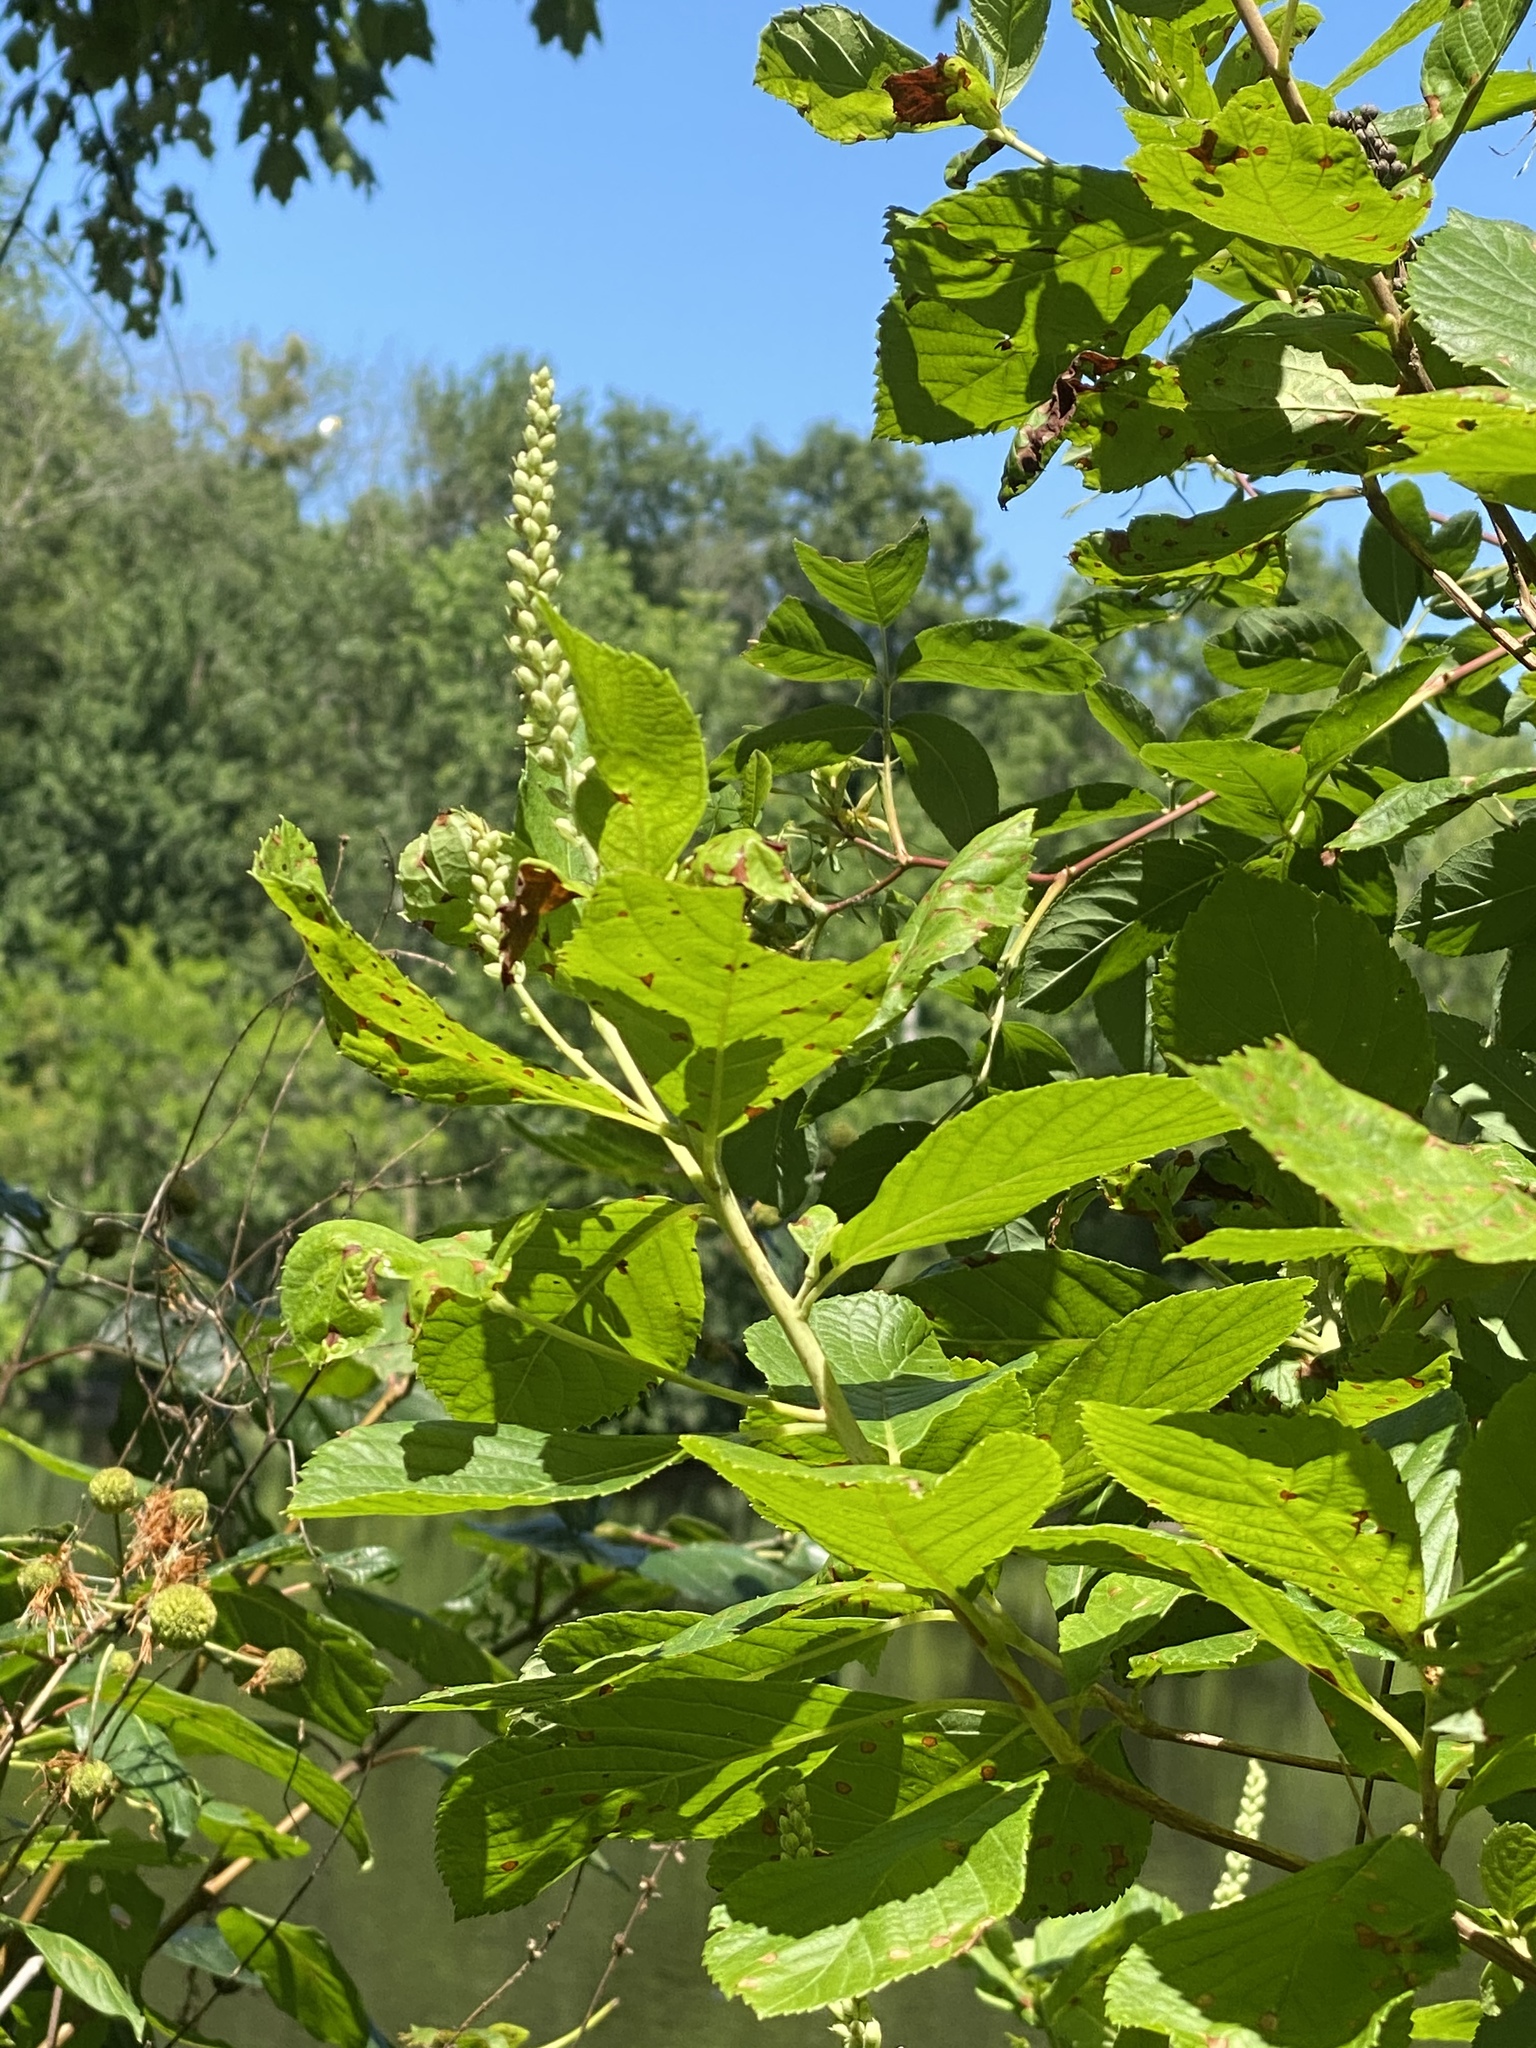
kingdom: Plantae
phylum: Tracheophyta
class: Magnoliopsida
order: Ericales
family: Clethraceae
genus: Clethra
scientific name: Clethra alnifolia
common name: Sweet pepperbush
